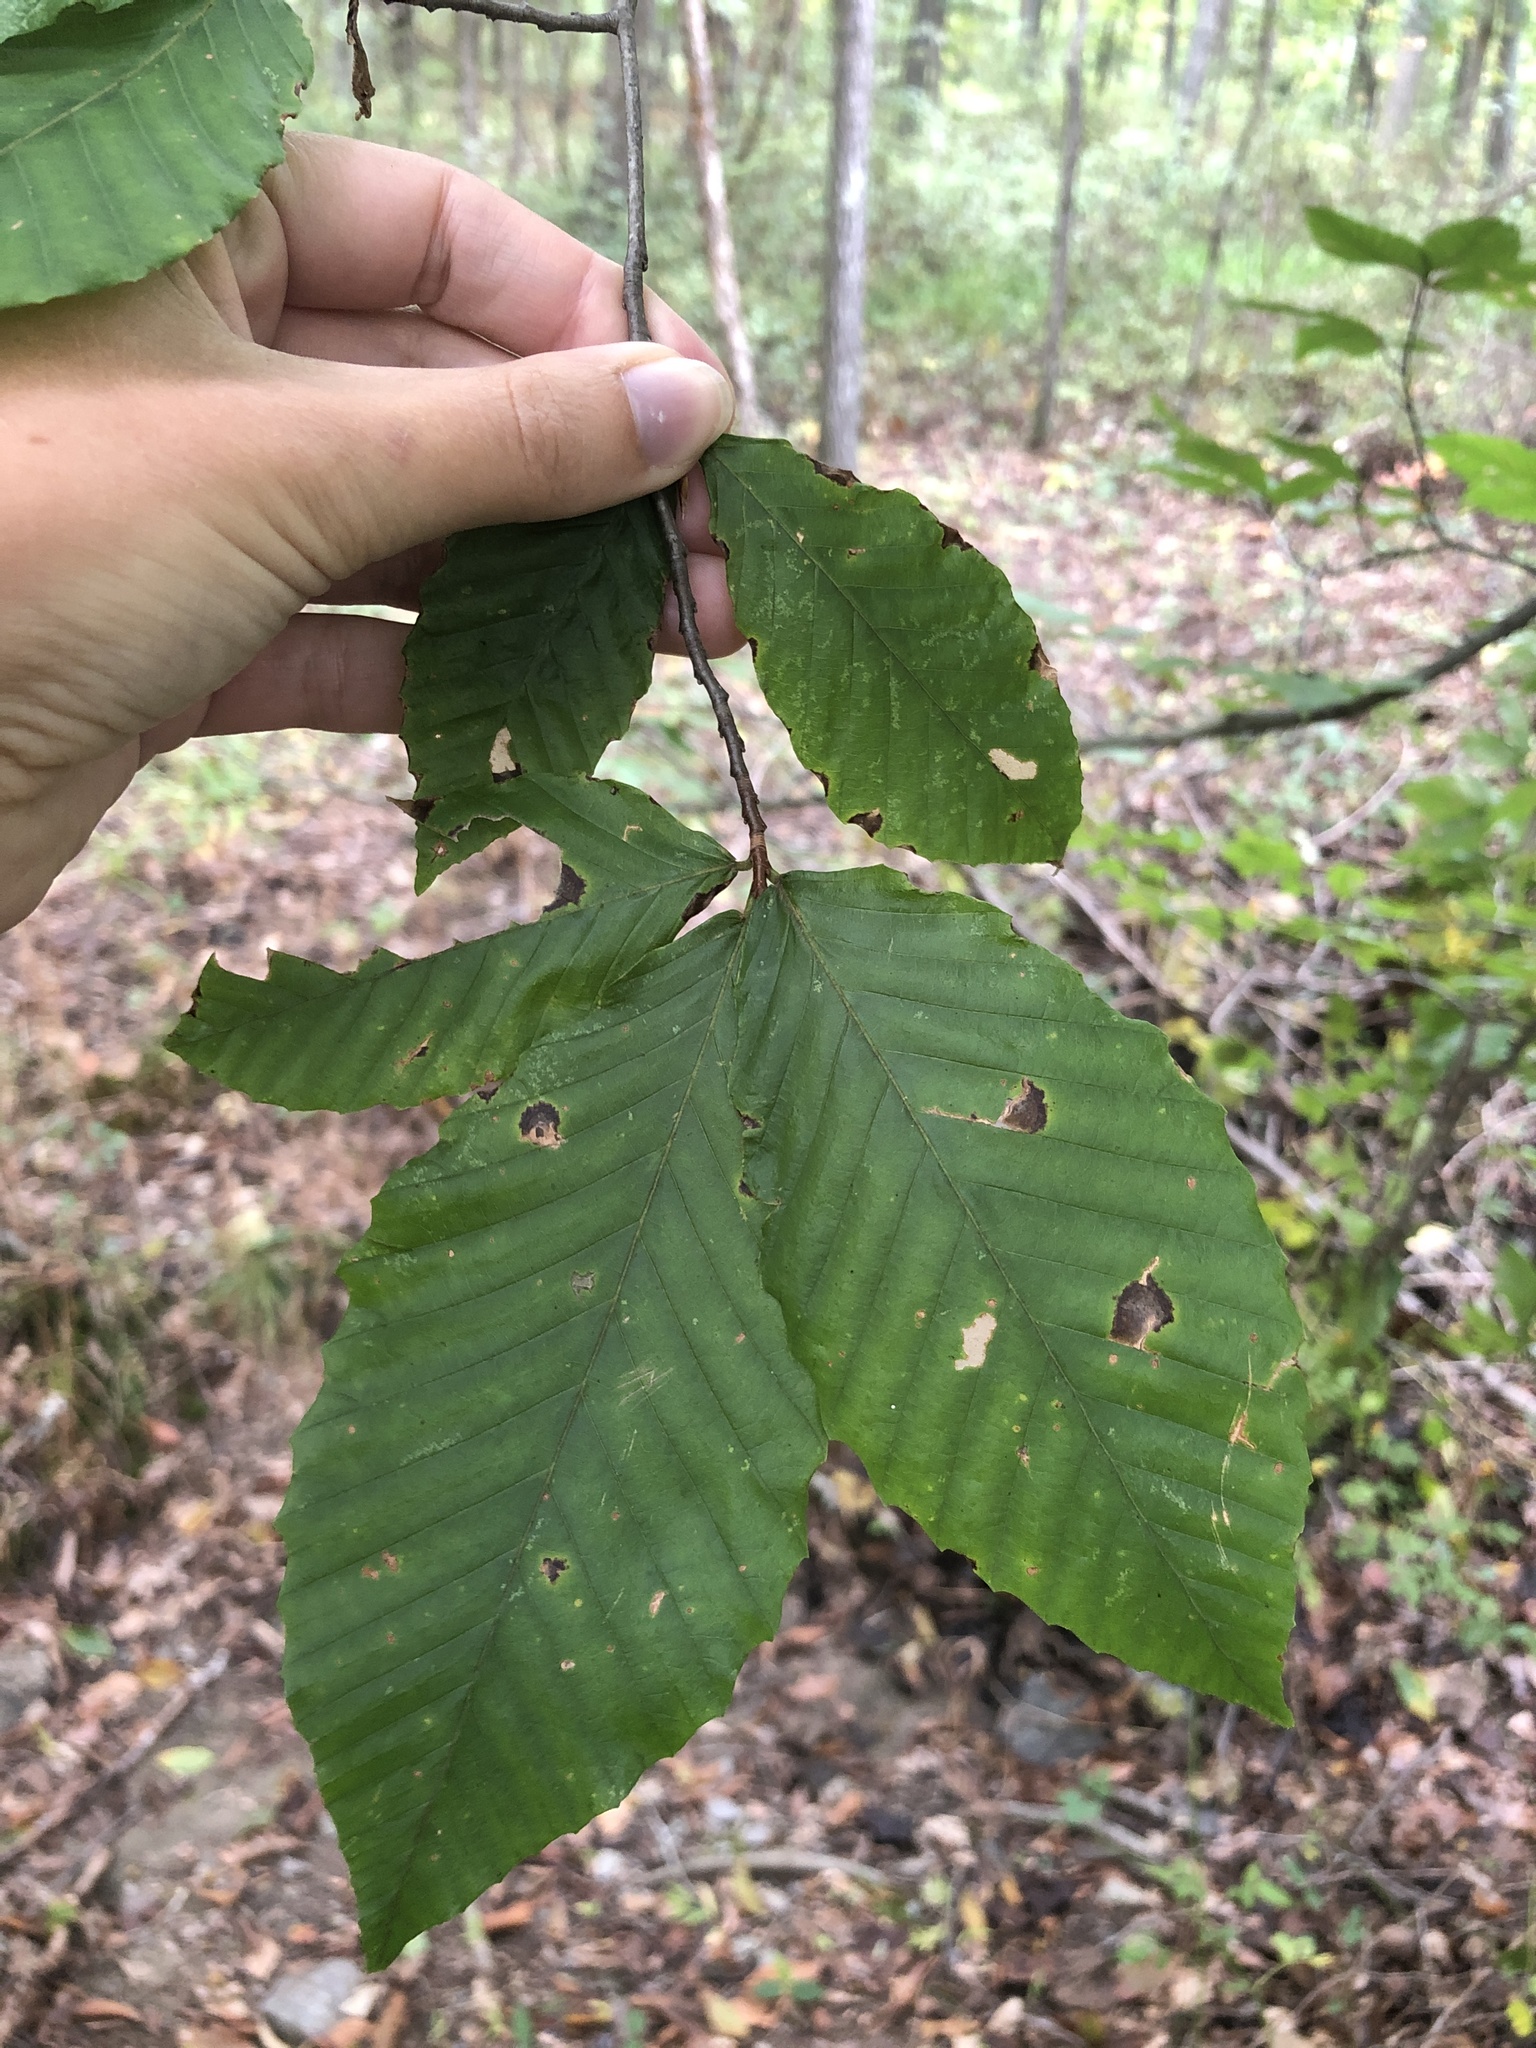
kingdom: Plantae
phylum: Tracheophyta
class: Magnoliopsida
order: Fagales
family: Fagaceae
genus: Fagus
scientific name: Fagus grandifolia
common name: American beech
